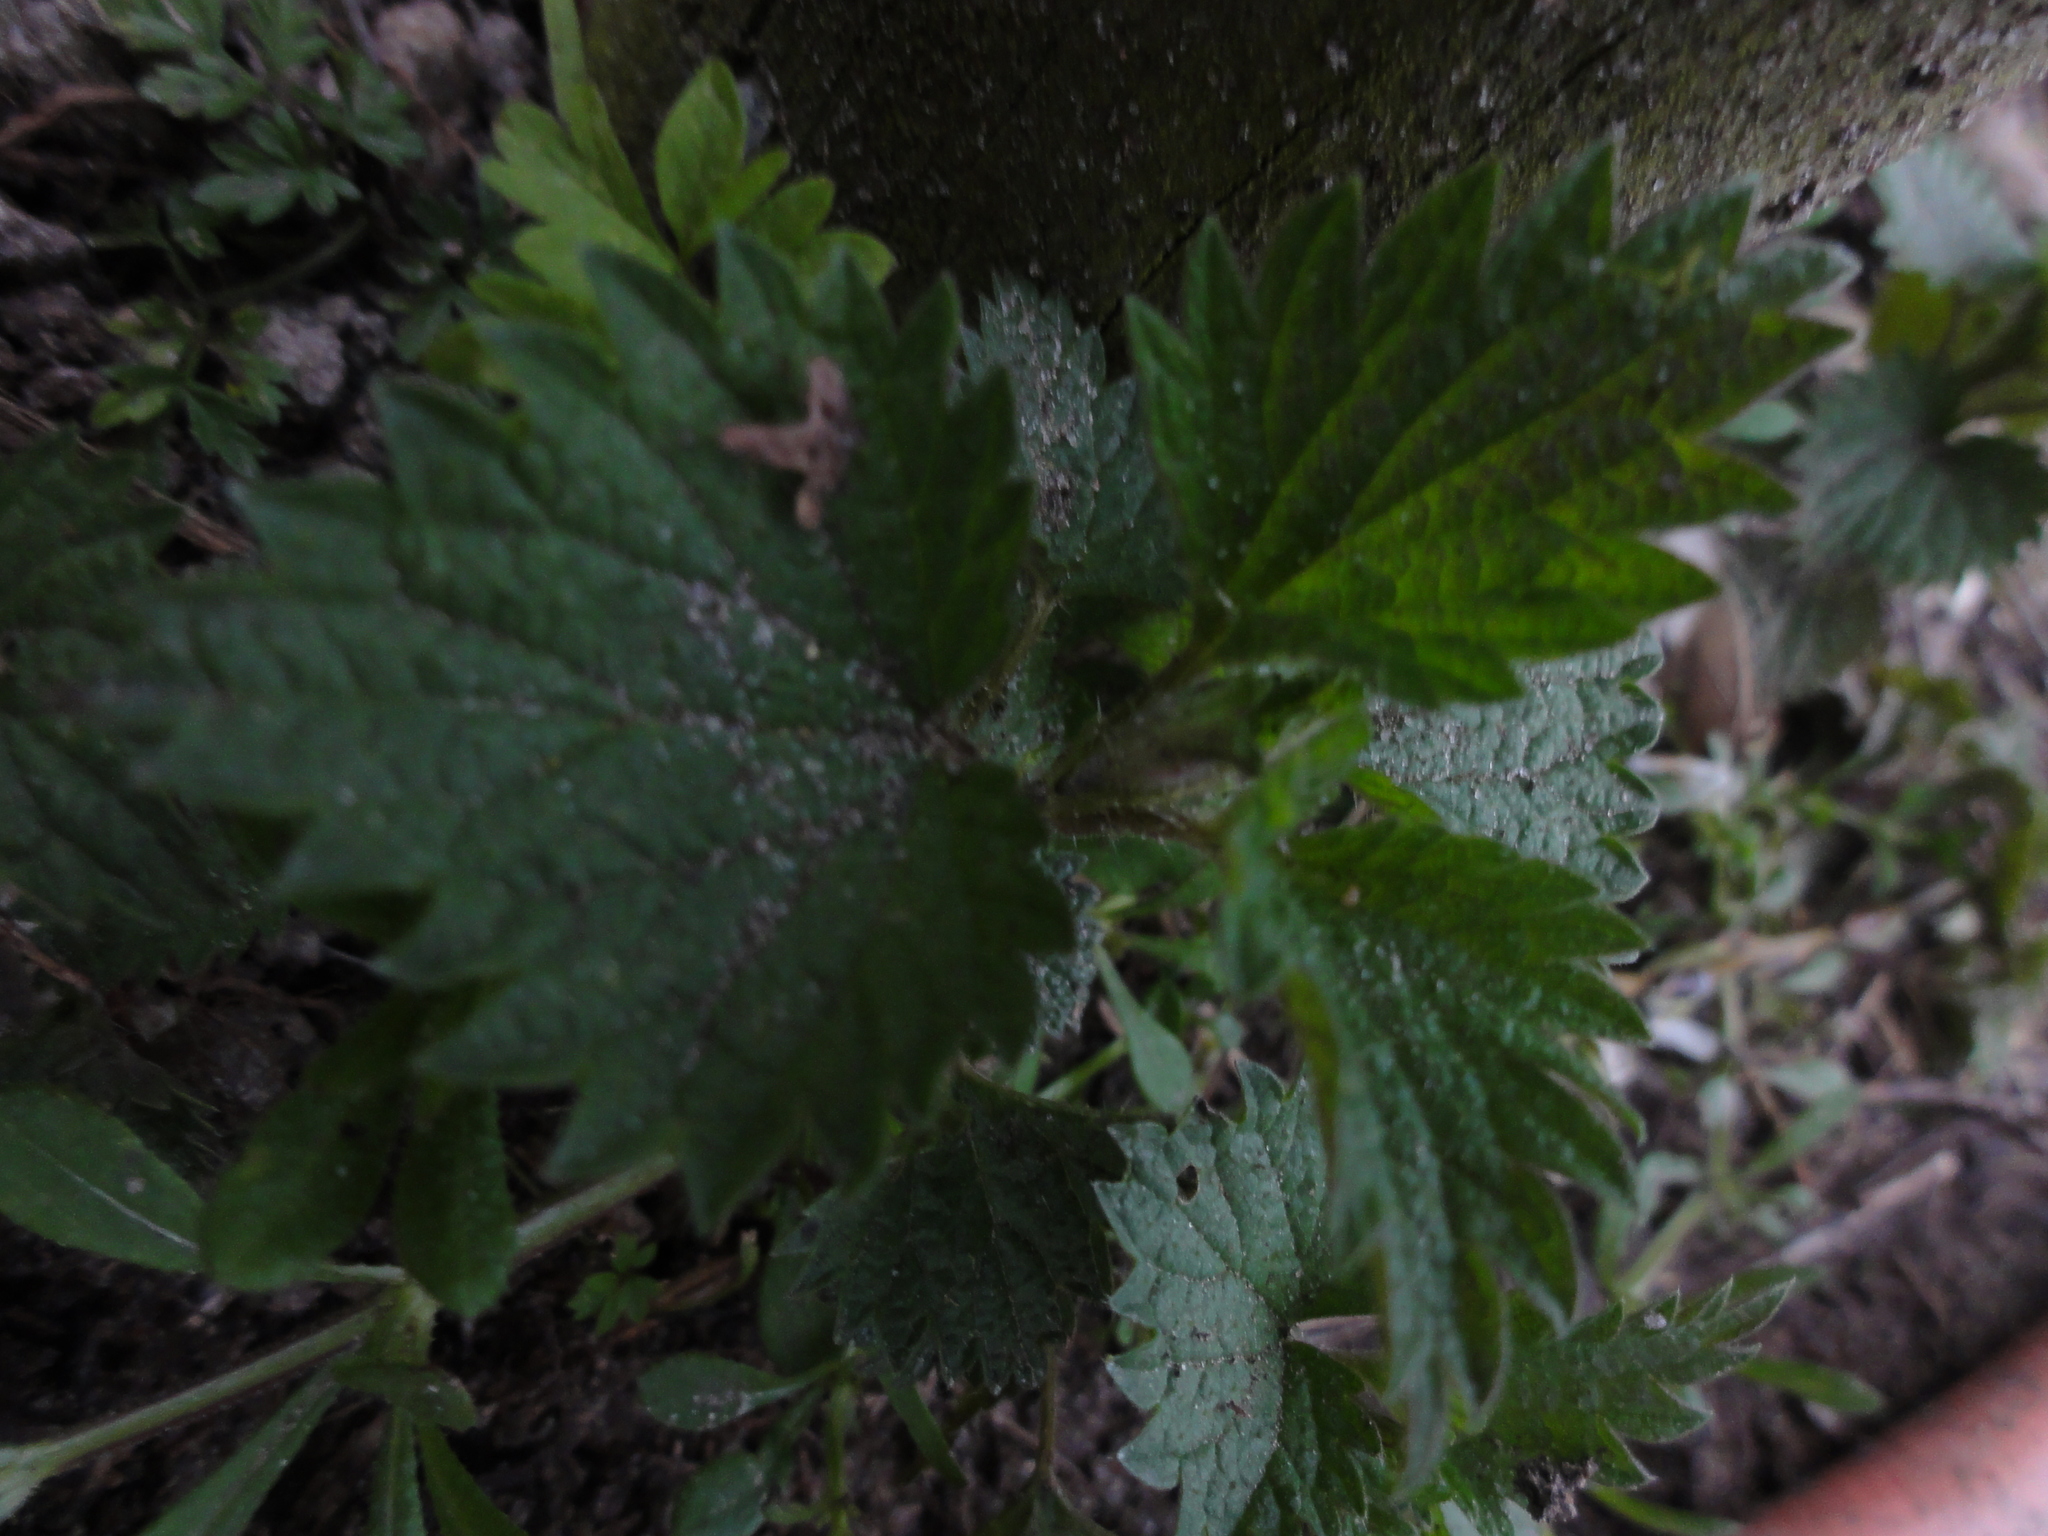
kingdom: Plantae
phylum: Tracheophyta
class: Magnoliopsida
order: Rosales
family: Urticaceae
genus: Urtica
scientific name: Urtica dioica
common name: Common nettle
